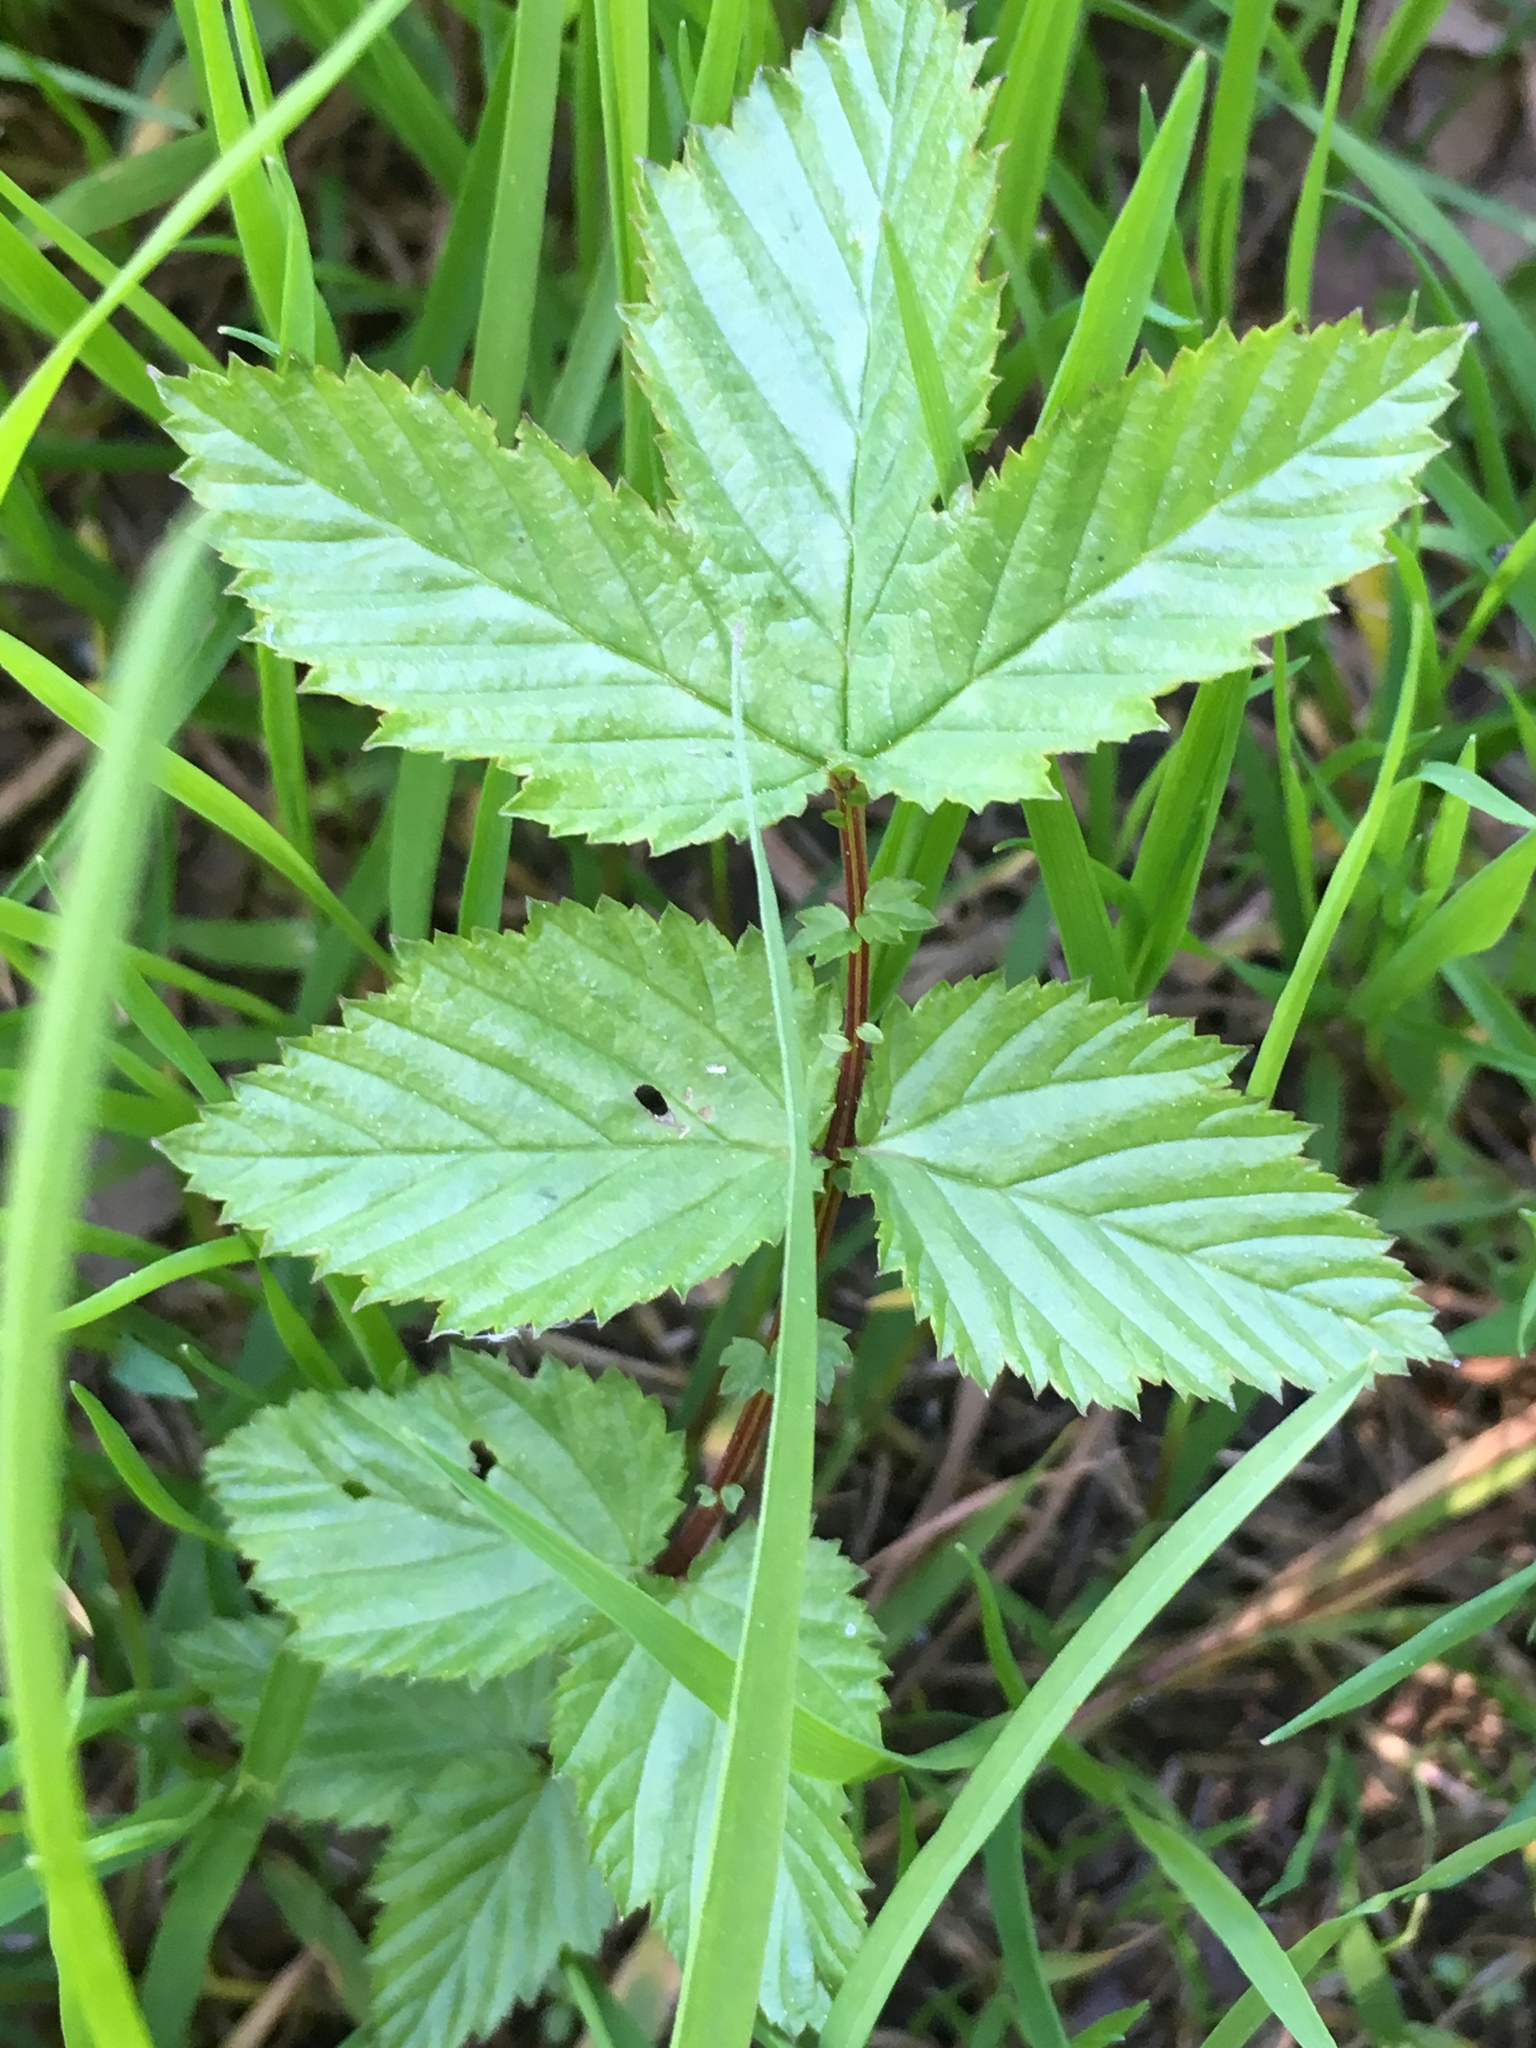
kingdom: Plantae
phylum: Tracheophyta
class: Magnoliopsida
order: Rosales
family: Rosaceae
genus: Filipendula
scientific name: Filipendula ulmaria
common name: Meadowsweet
